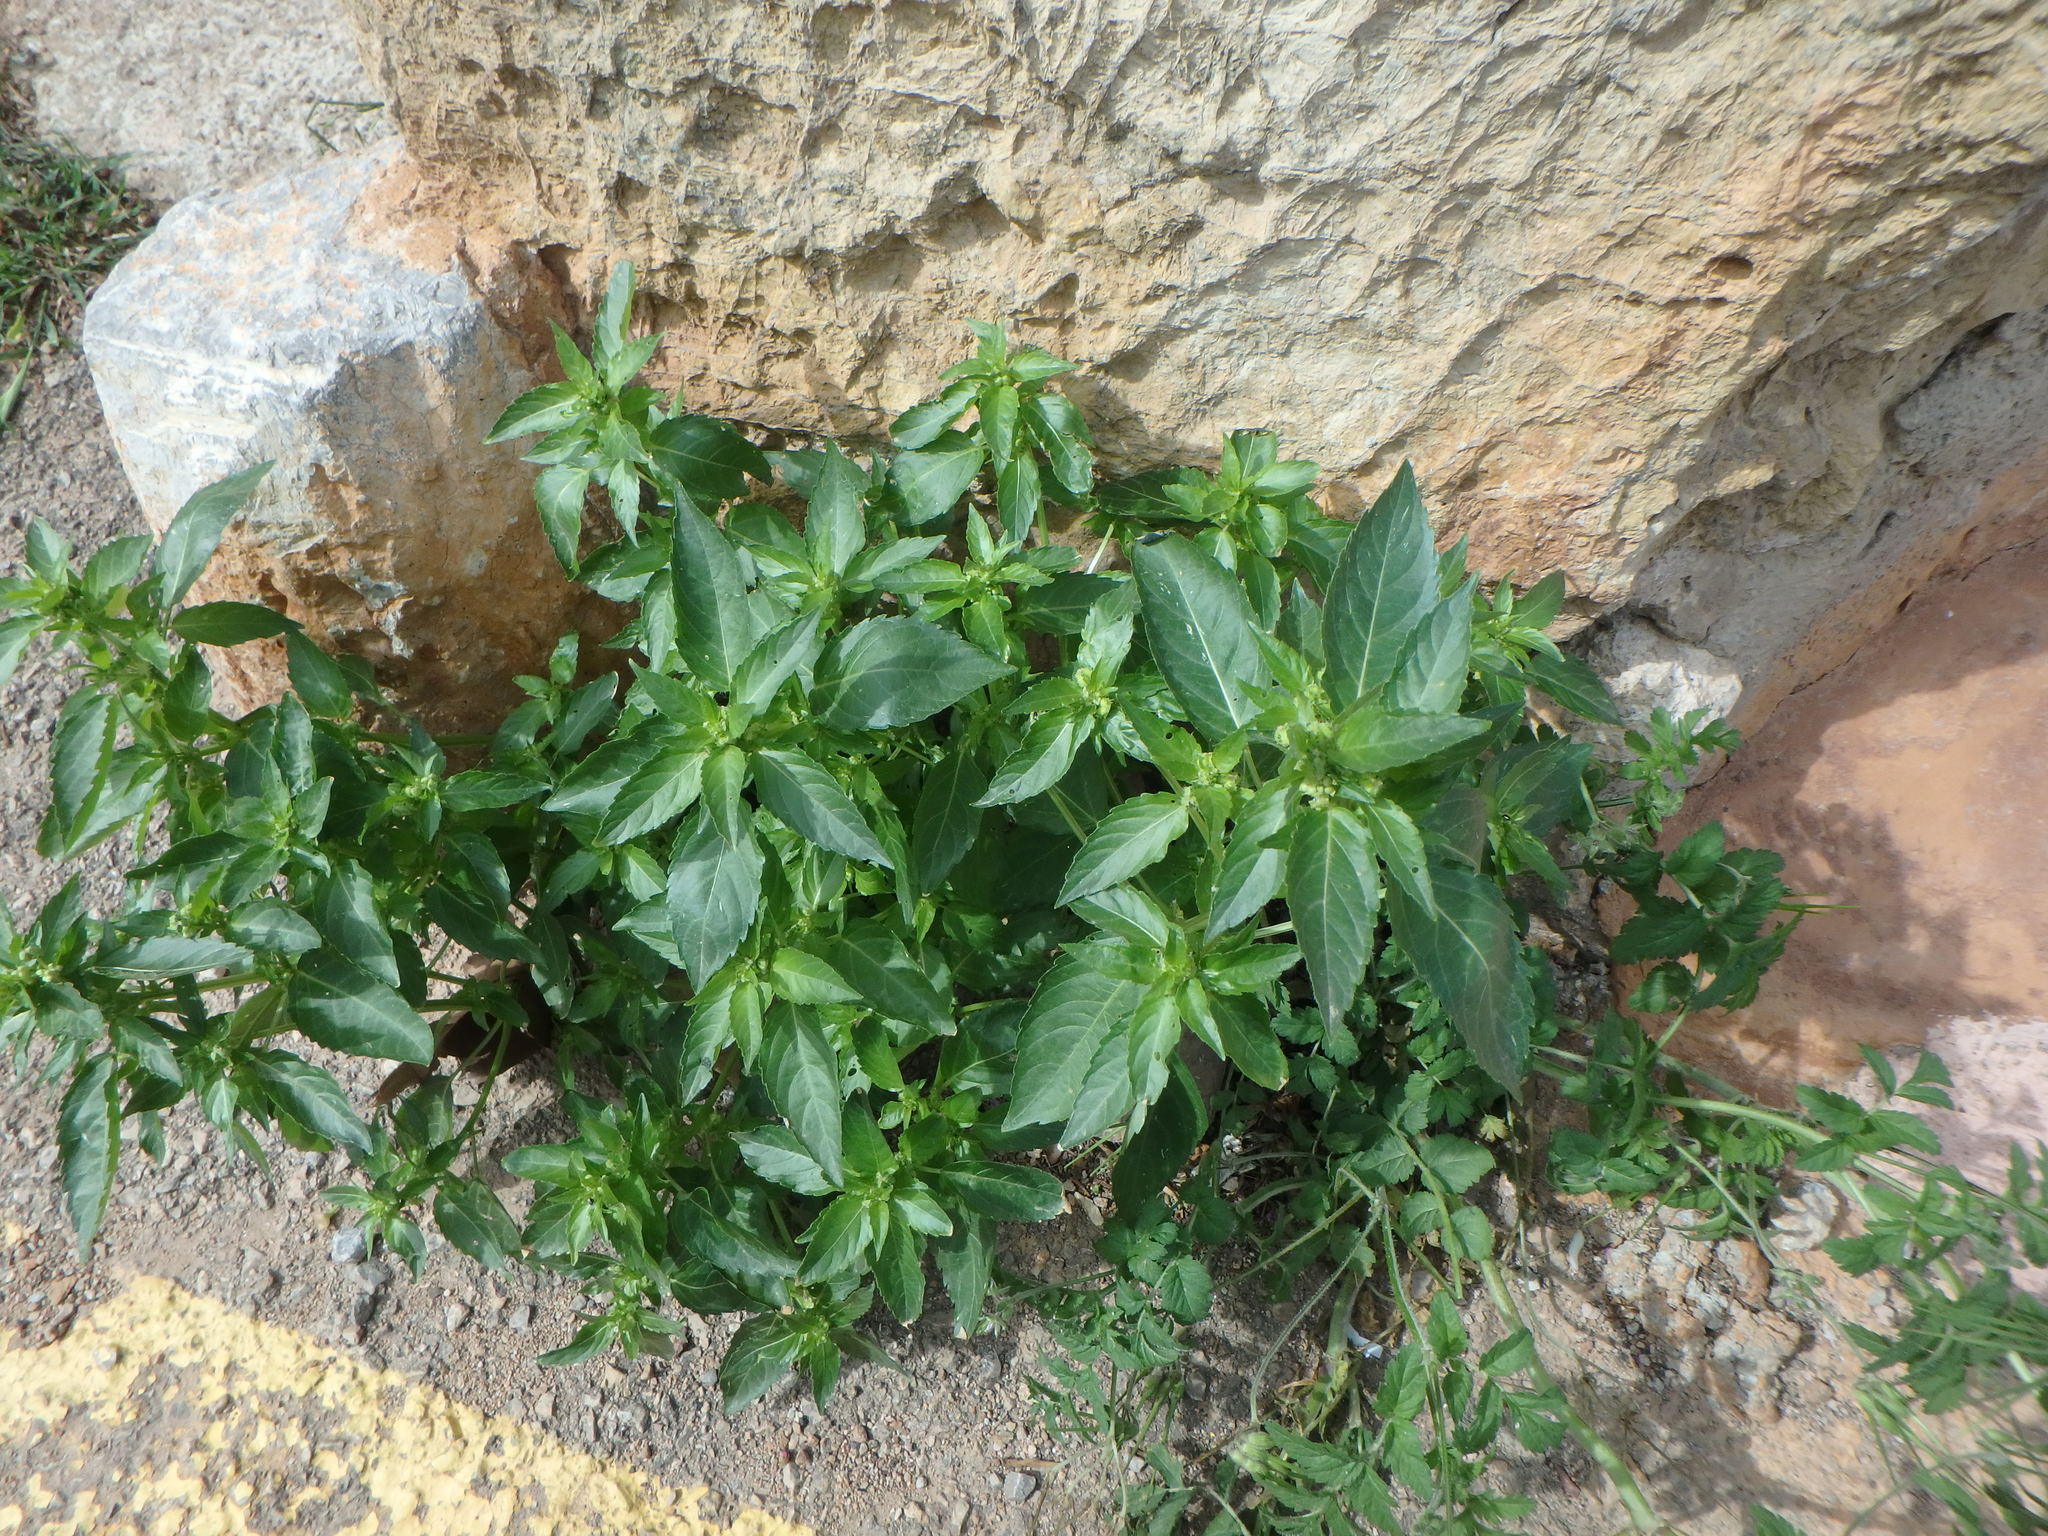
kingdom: Plantae
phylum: Tracheophyta
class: Magnoliopsida
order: Malpighiales
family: Euphorbiaceae
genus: Mercurialis
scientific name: Mercurialis annua
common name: Annual mercury
